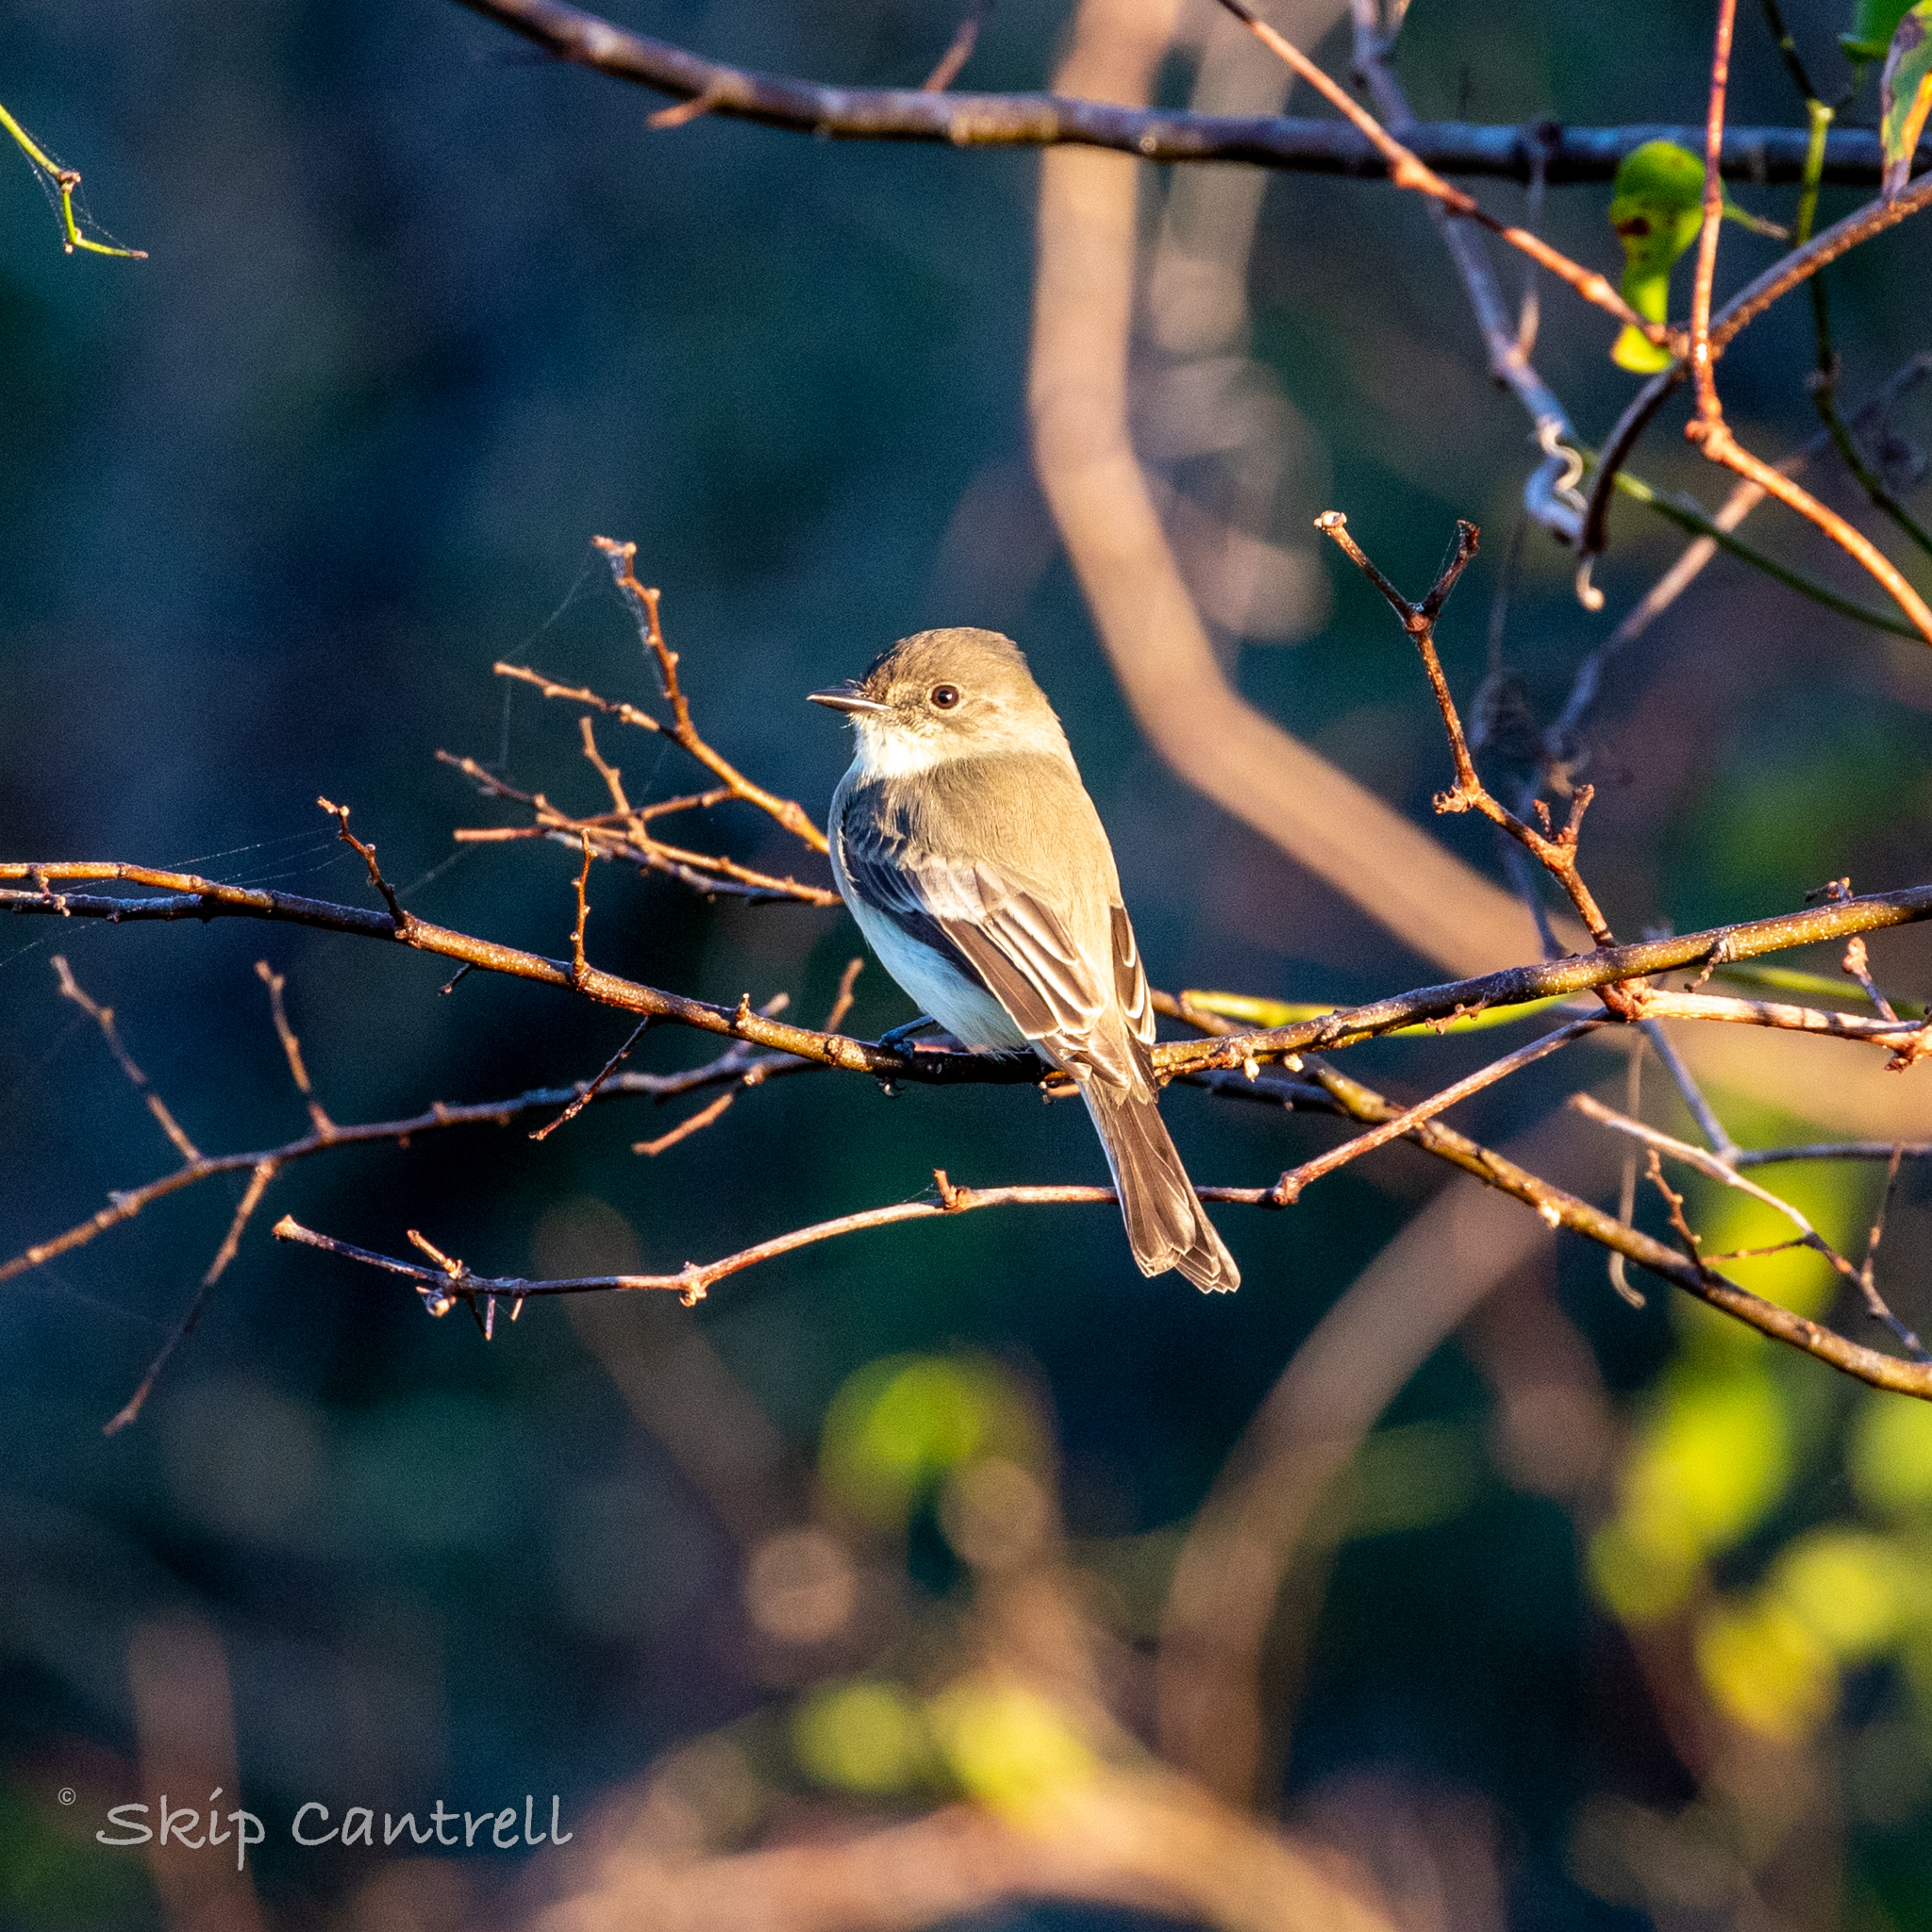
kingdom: Animalia
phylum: Chordata
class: Aves
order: Passeriformes
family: Tyrannidae
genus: Sayornis
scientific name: Sayornis phoebe
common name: Eastern phoebe
